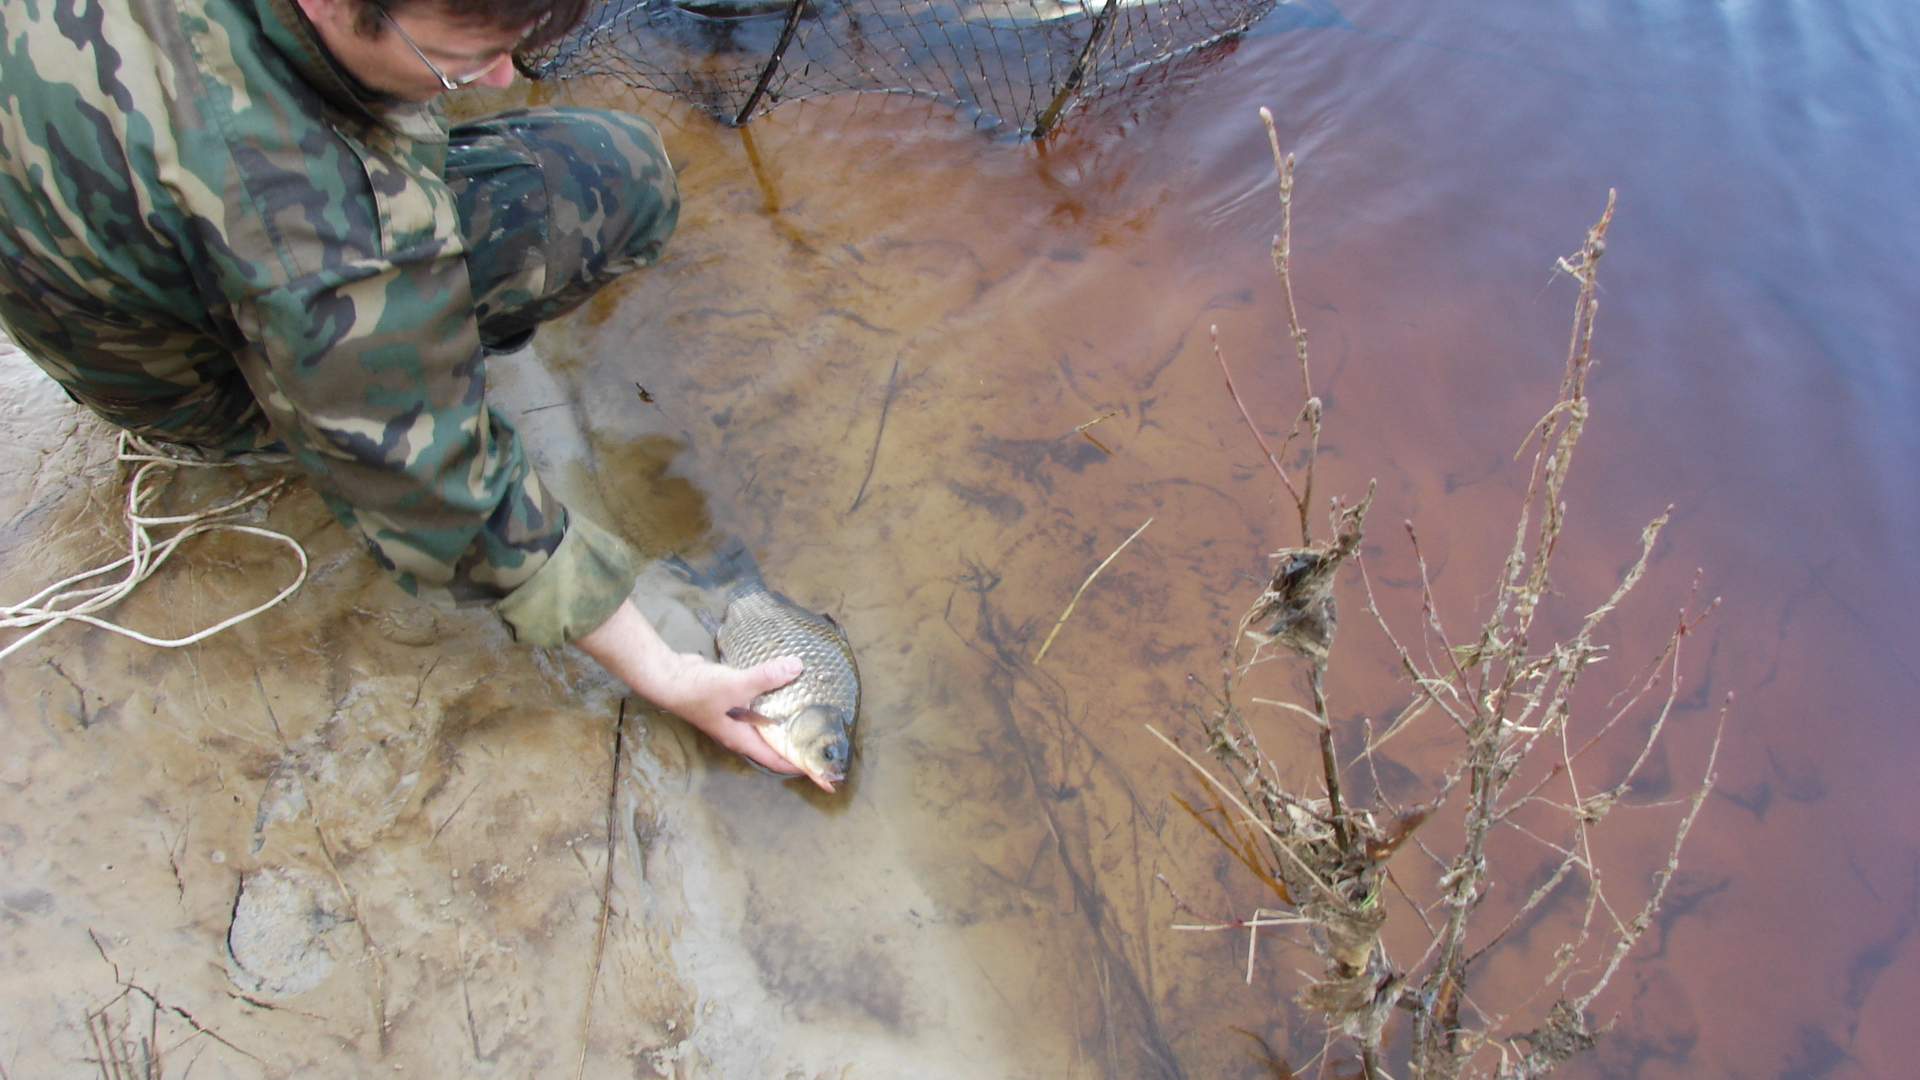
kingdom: Animalia
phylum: Chordata
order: Cypriniformes
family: Cyprinidae
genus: Carassius
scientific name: Carassius gibelio
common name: Prussian carp
